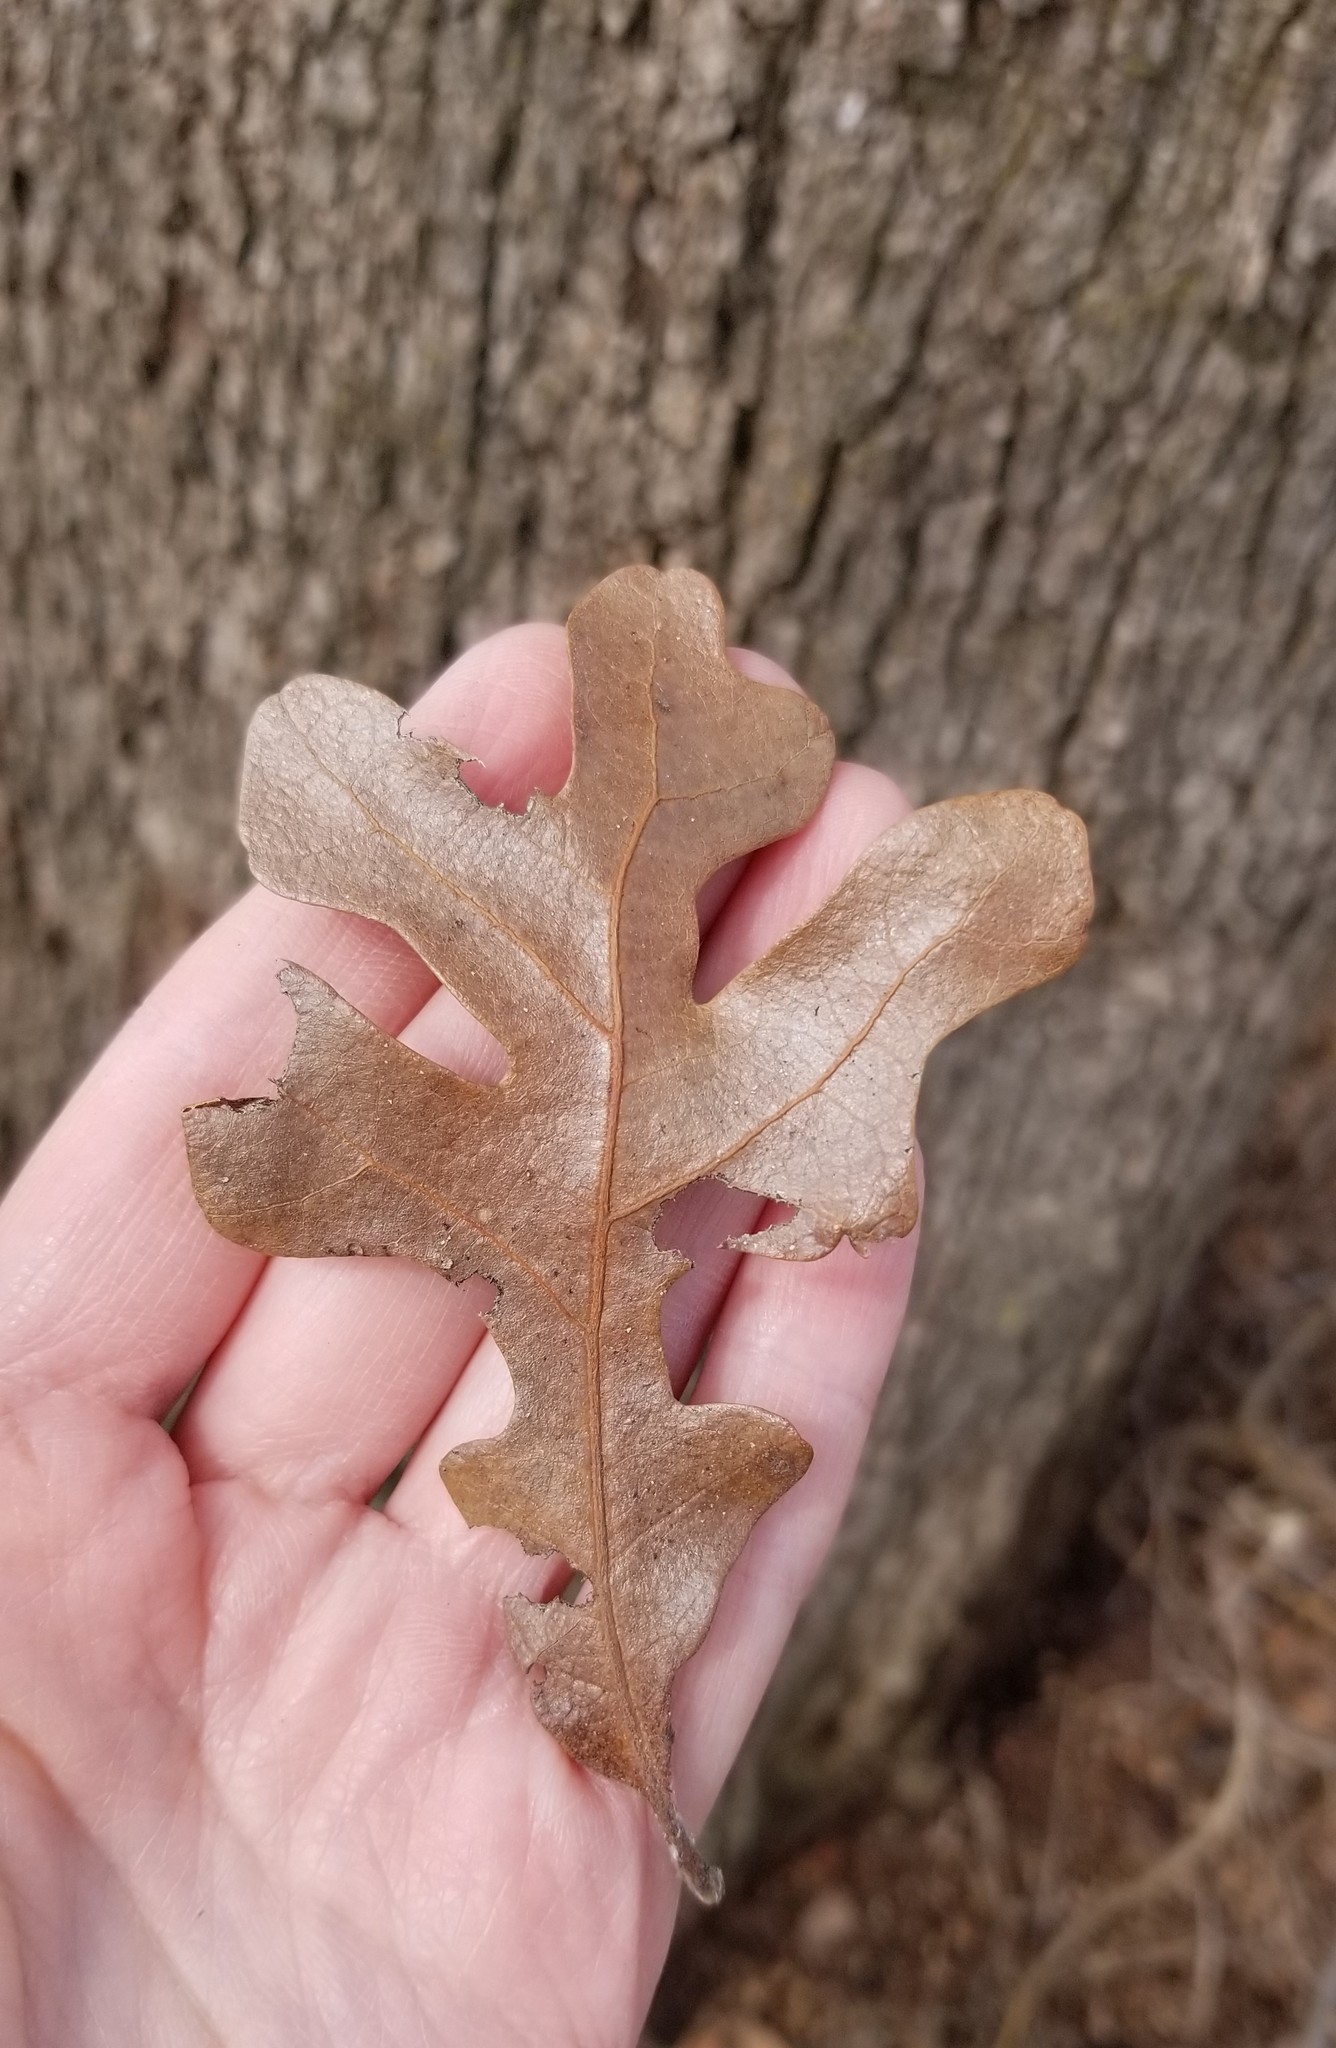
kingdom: Plantae
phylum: Tracheophyta
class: Magnoliopsida
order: Fagales
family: Fagaceae
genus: Quercus
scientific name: Quercus stellata
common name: Post oak
